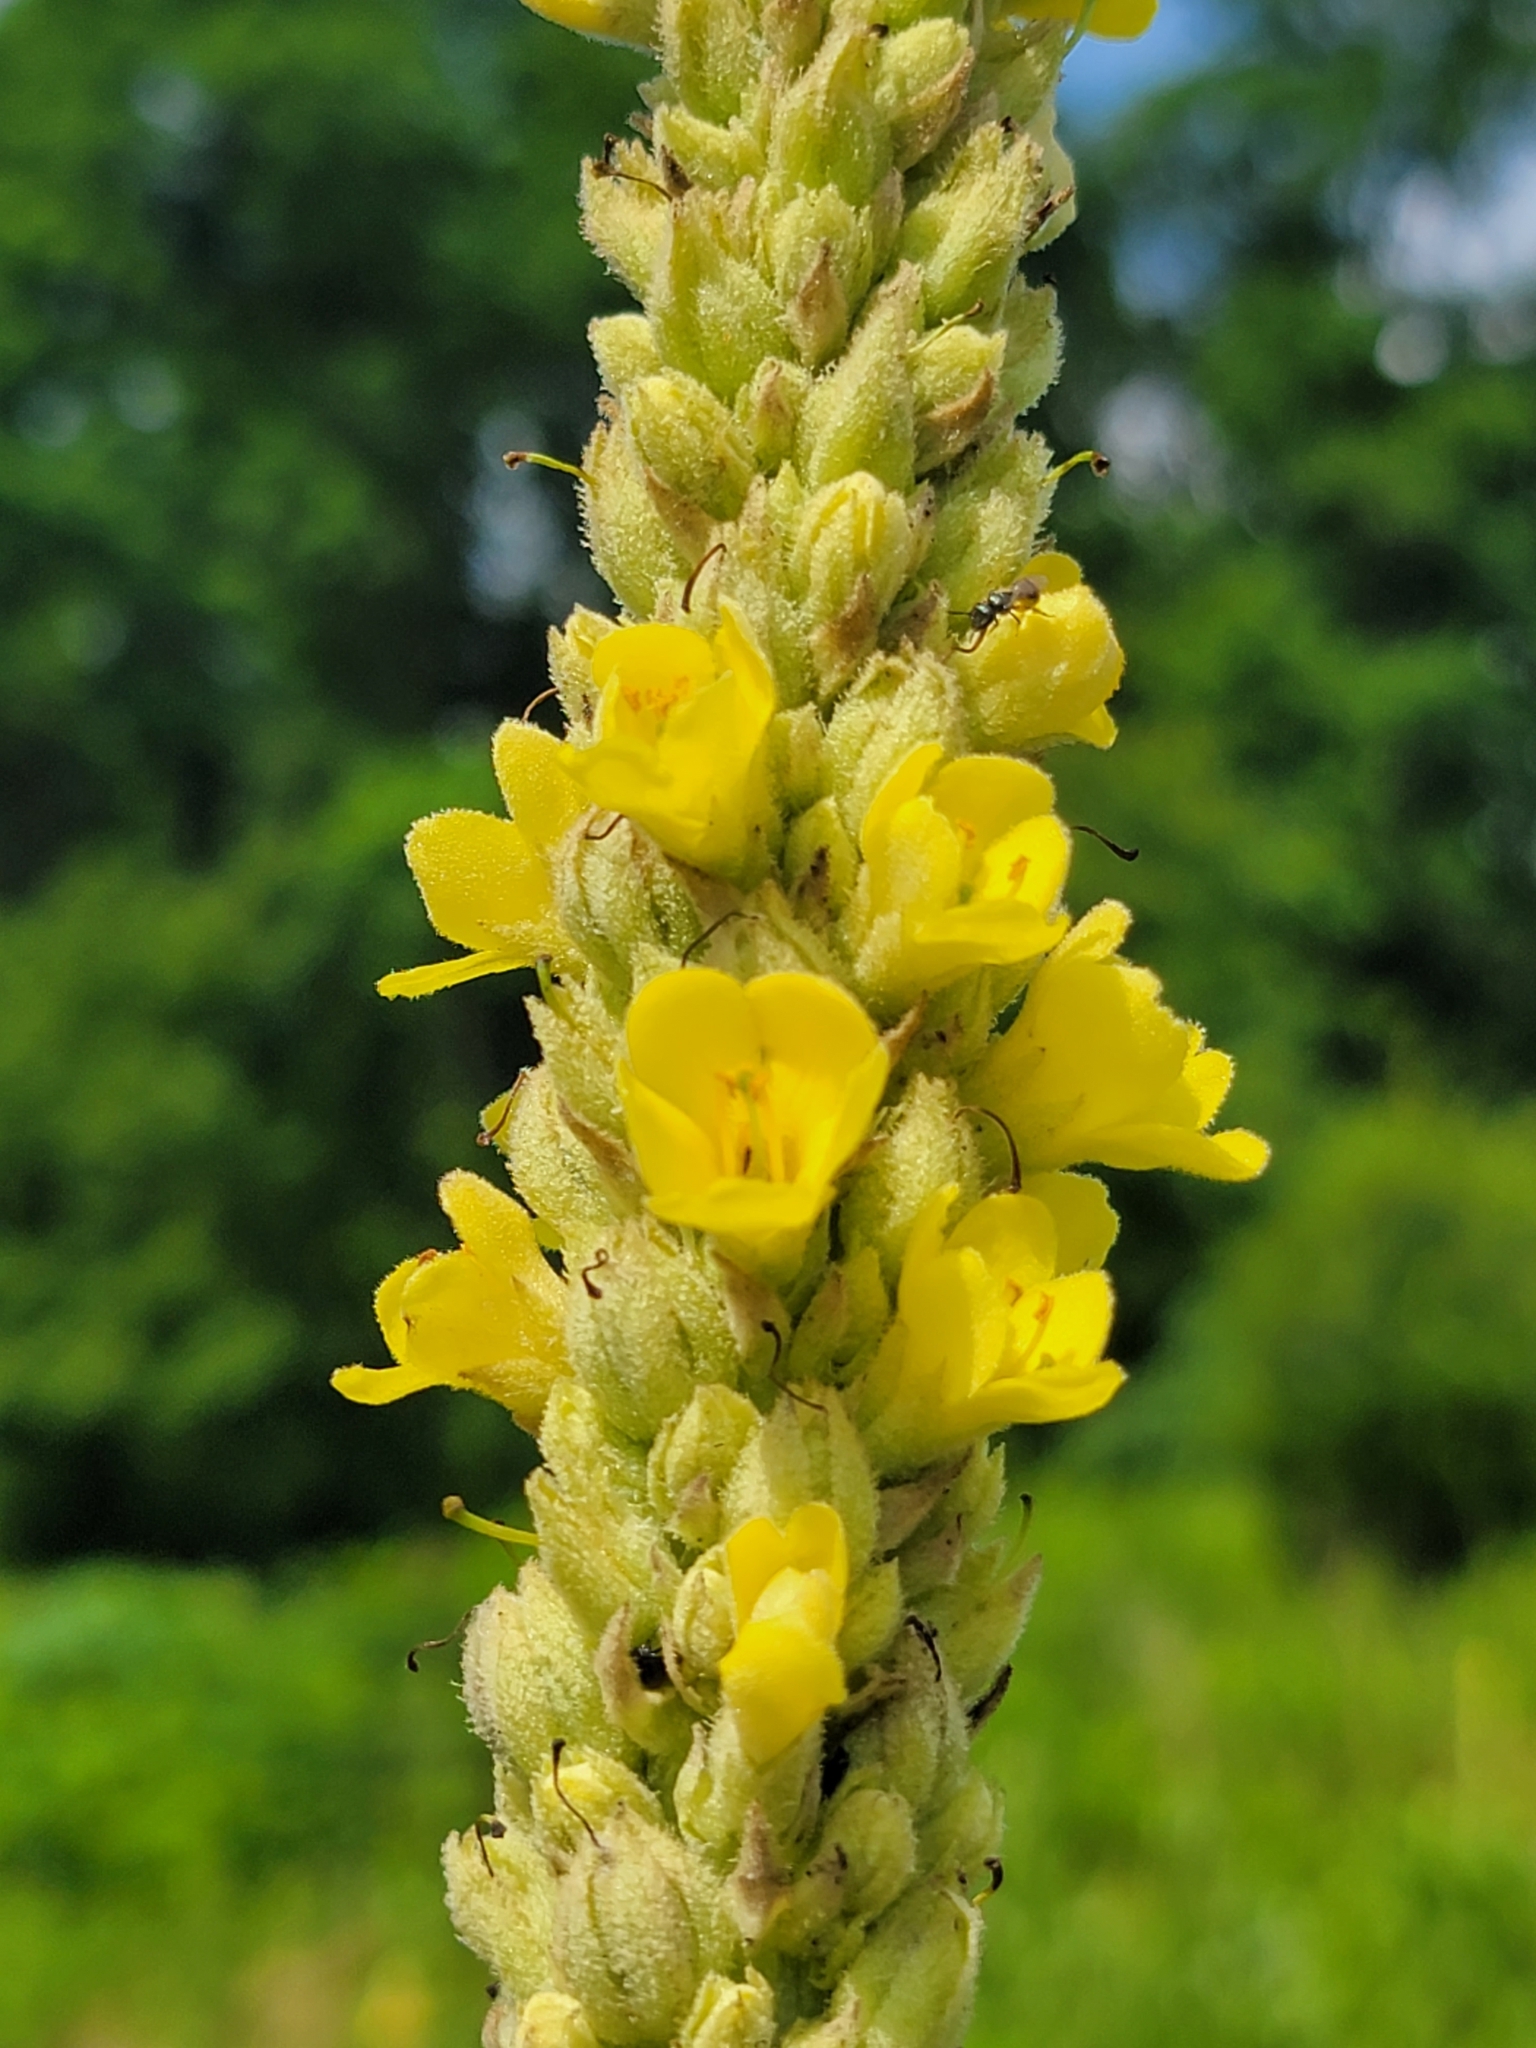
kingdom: Plantae
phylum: Tracheophyta
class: Magnoliopsida
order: Lamiales
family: Scrophulariaceae
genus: Verbascum
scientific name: Verbascum thapsus
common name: Common mullein
